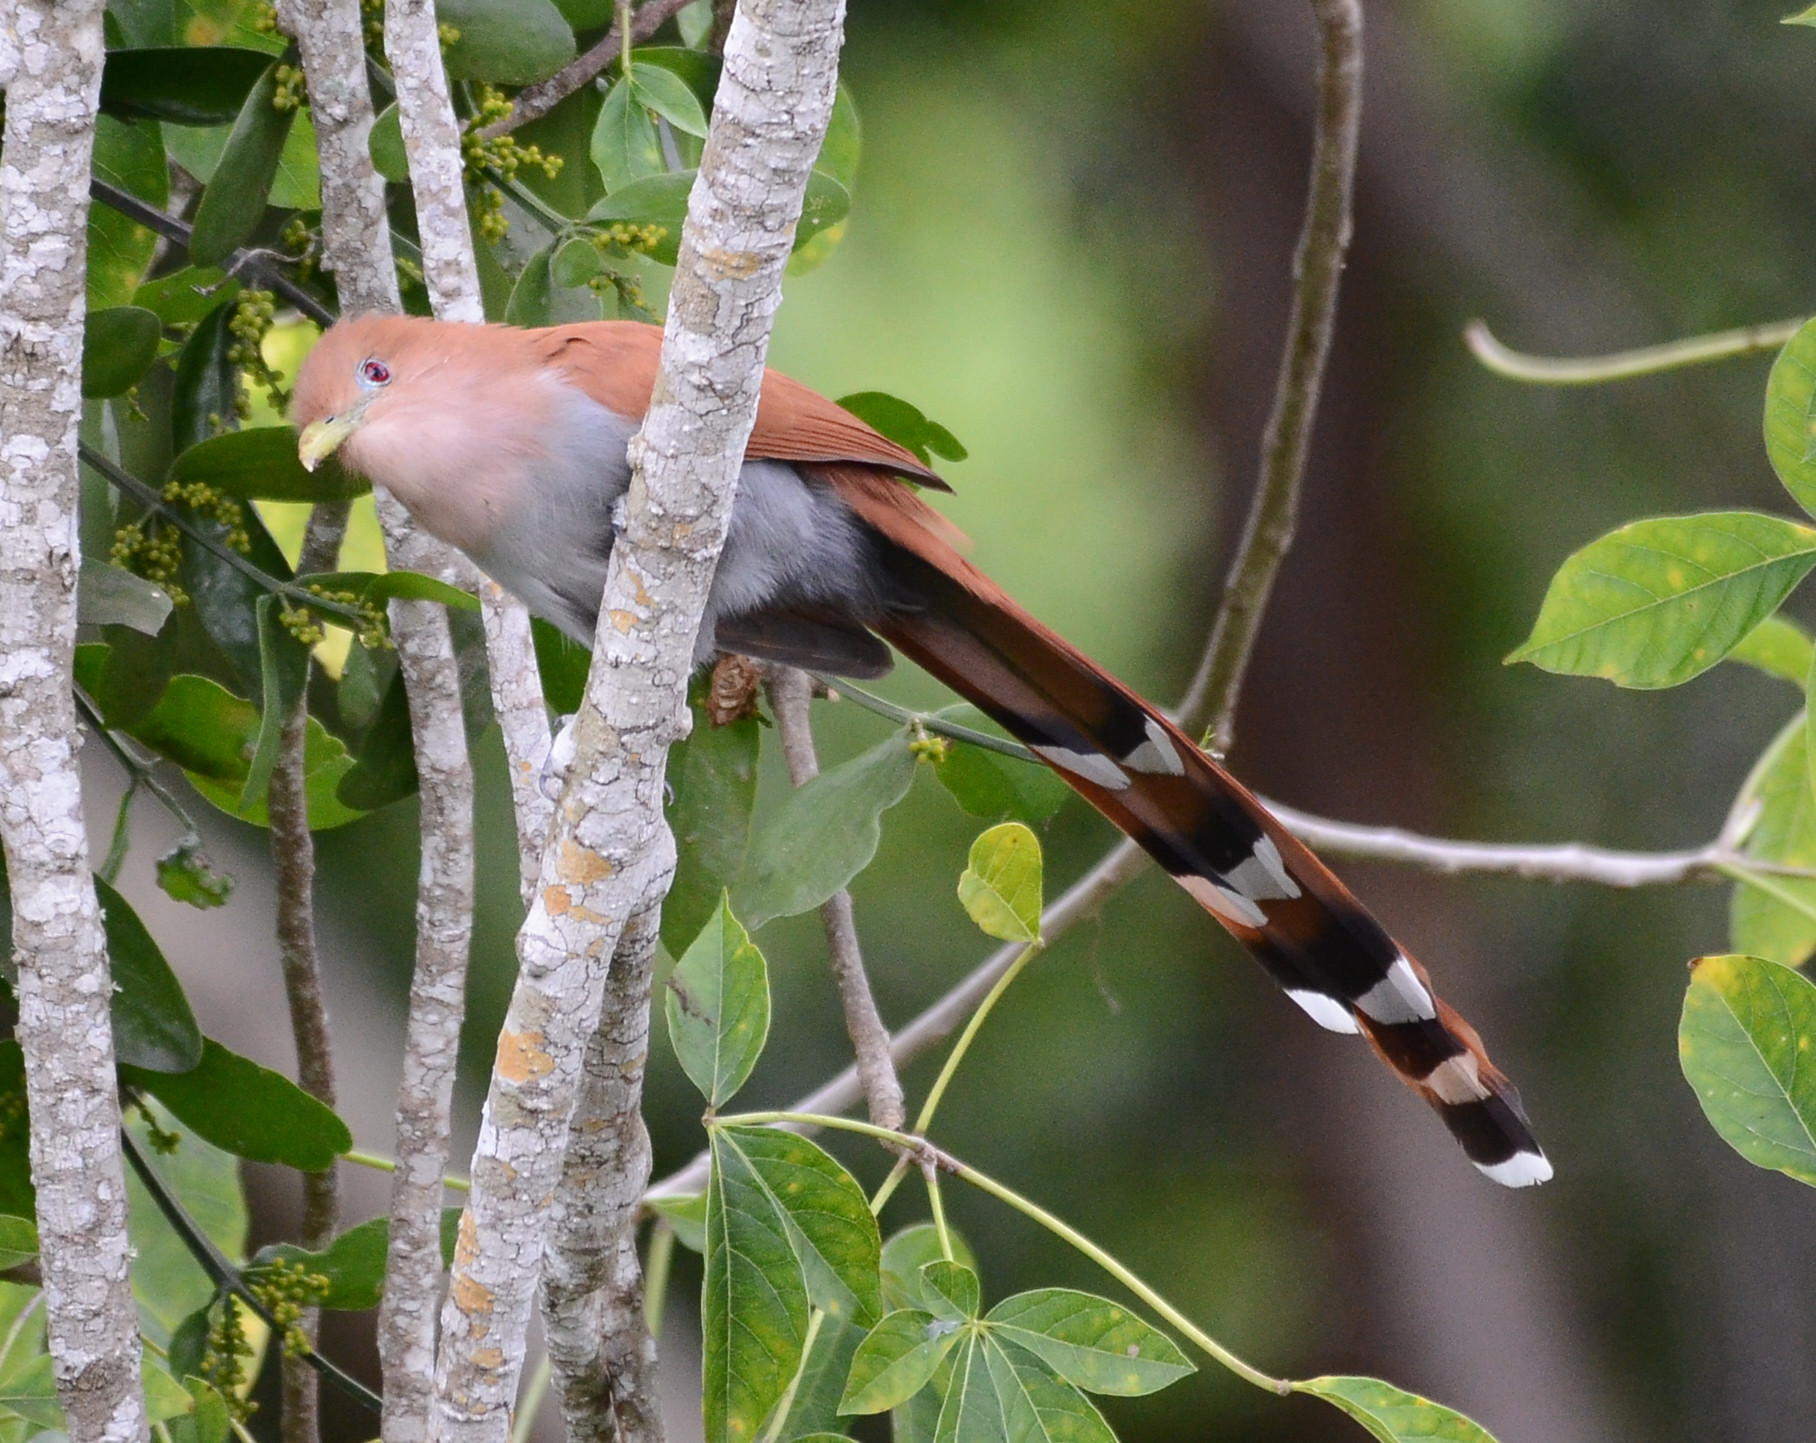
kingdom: Animalia
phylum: Chordata
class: Aves
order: Cuculiformes
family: Cuculidae
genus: Piaya
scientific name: Piaya cayana
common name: Squirrel cuckoo
